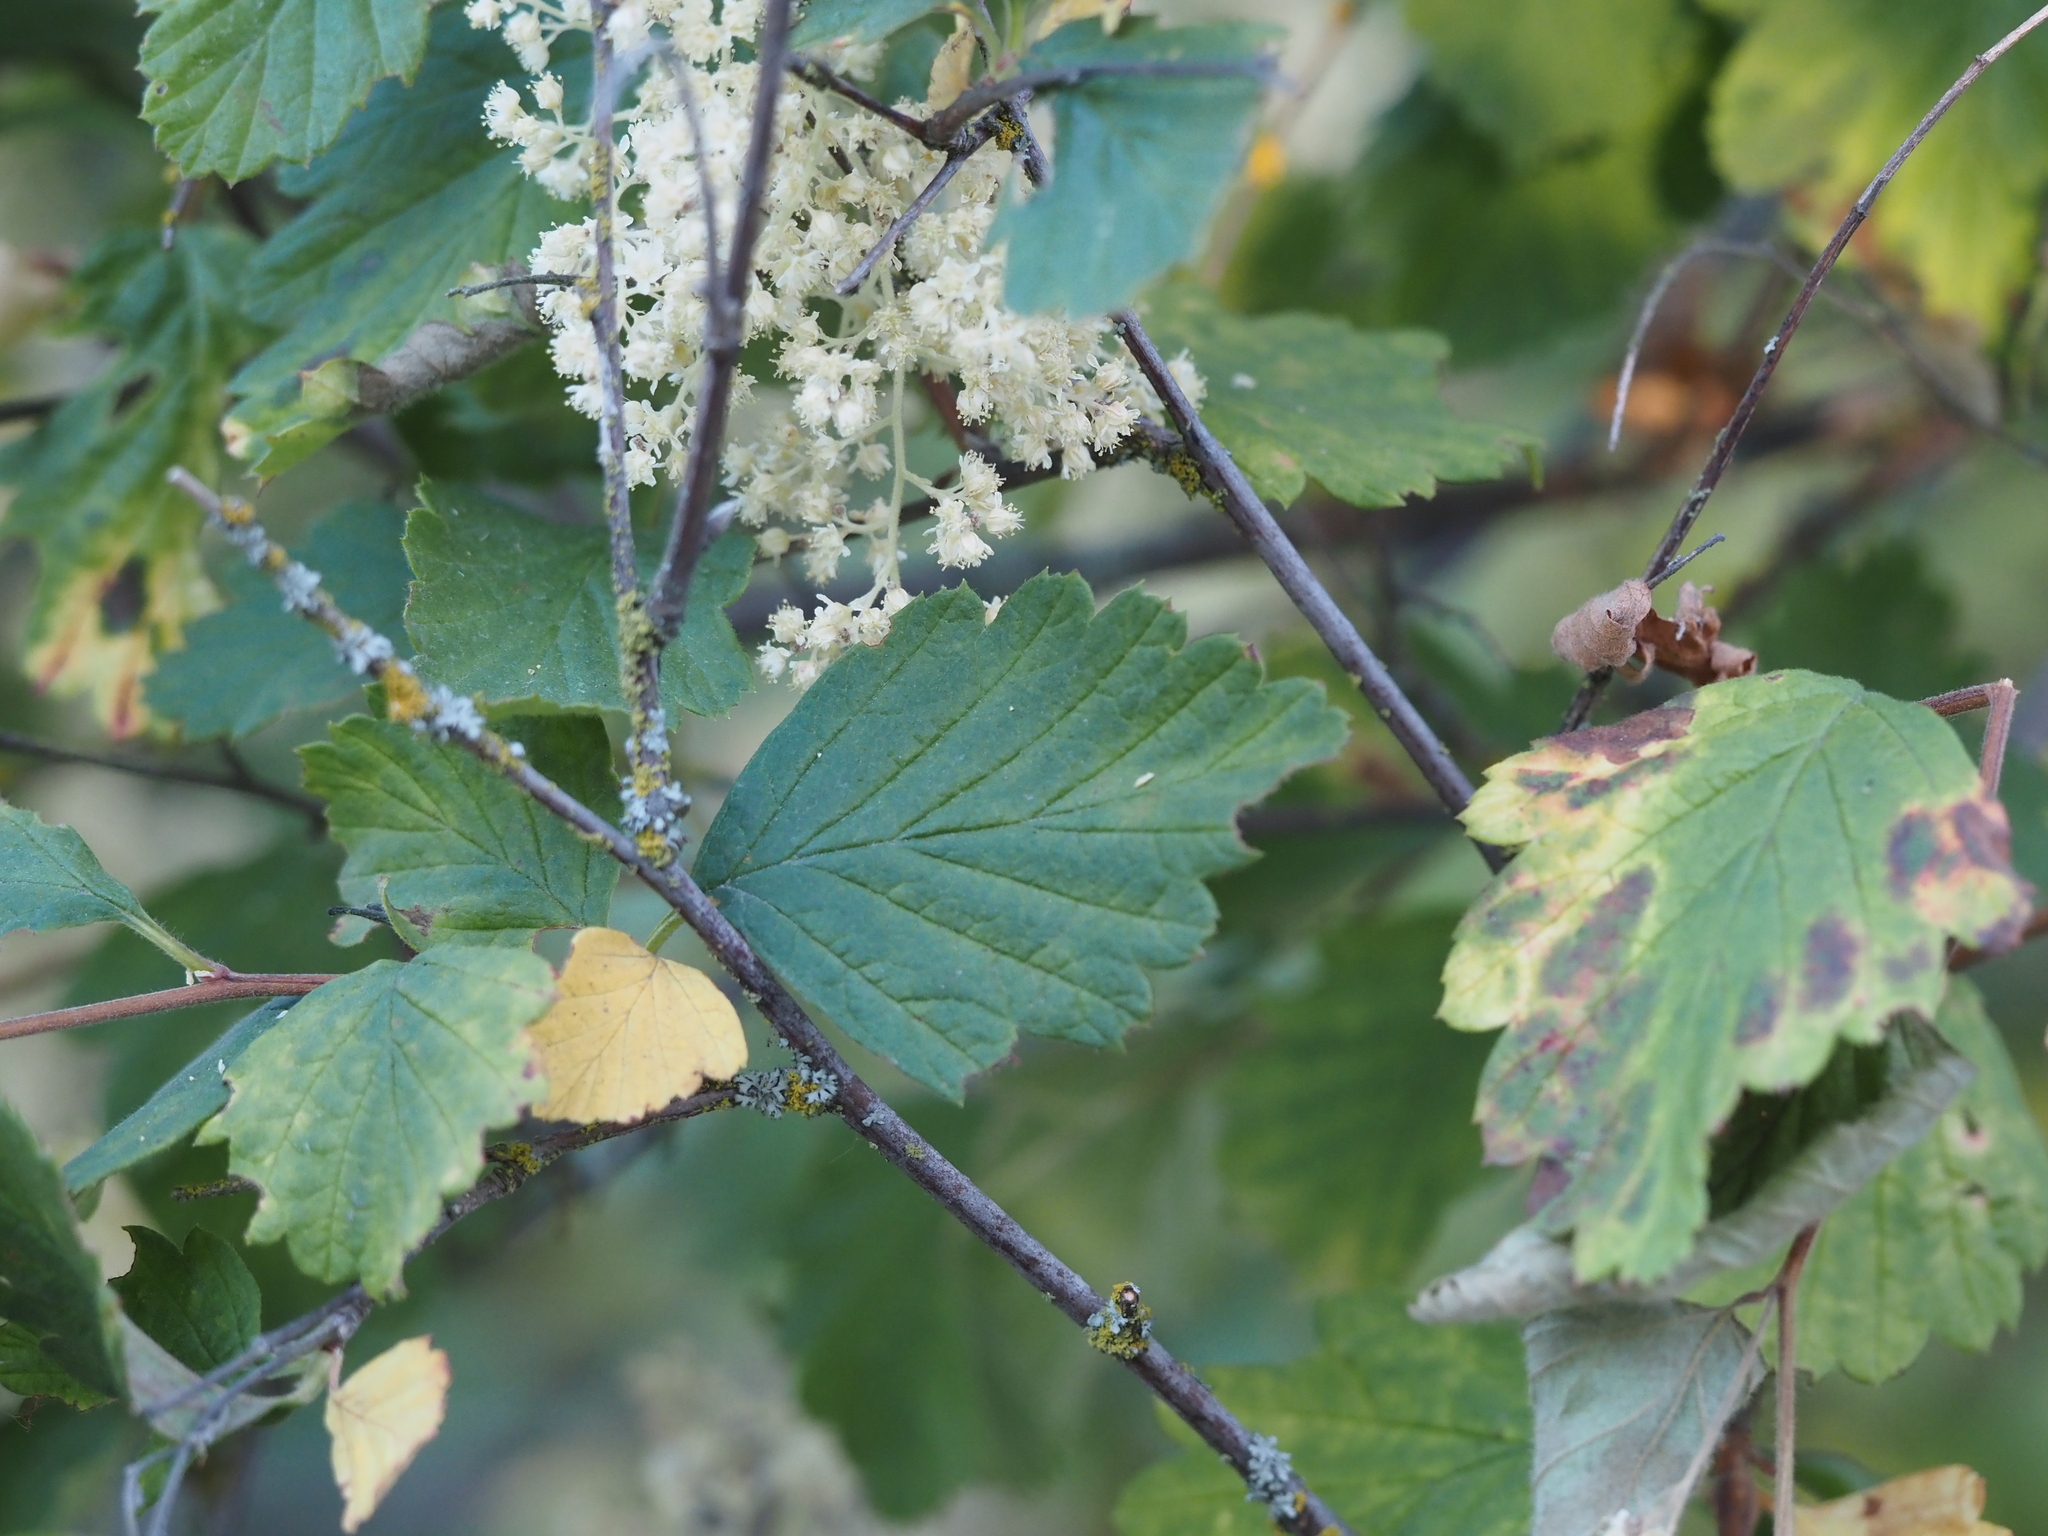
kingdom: Plantae
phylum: Tracheophyta
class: Magnoliopsida
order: Rosales
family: Rosaceae
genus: Holodiscus
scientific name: Holodiscus discolor
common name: Oceanspray
